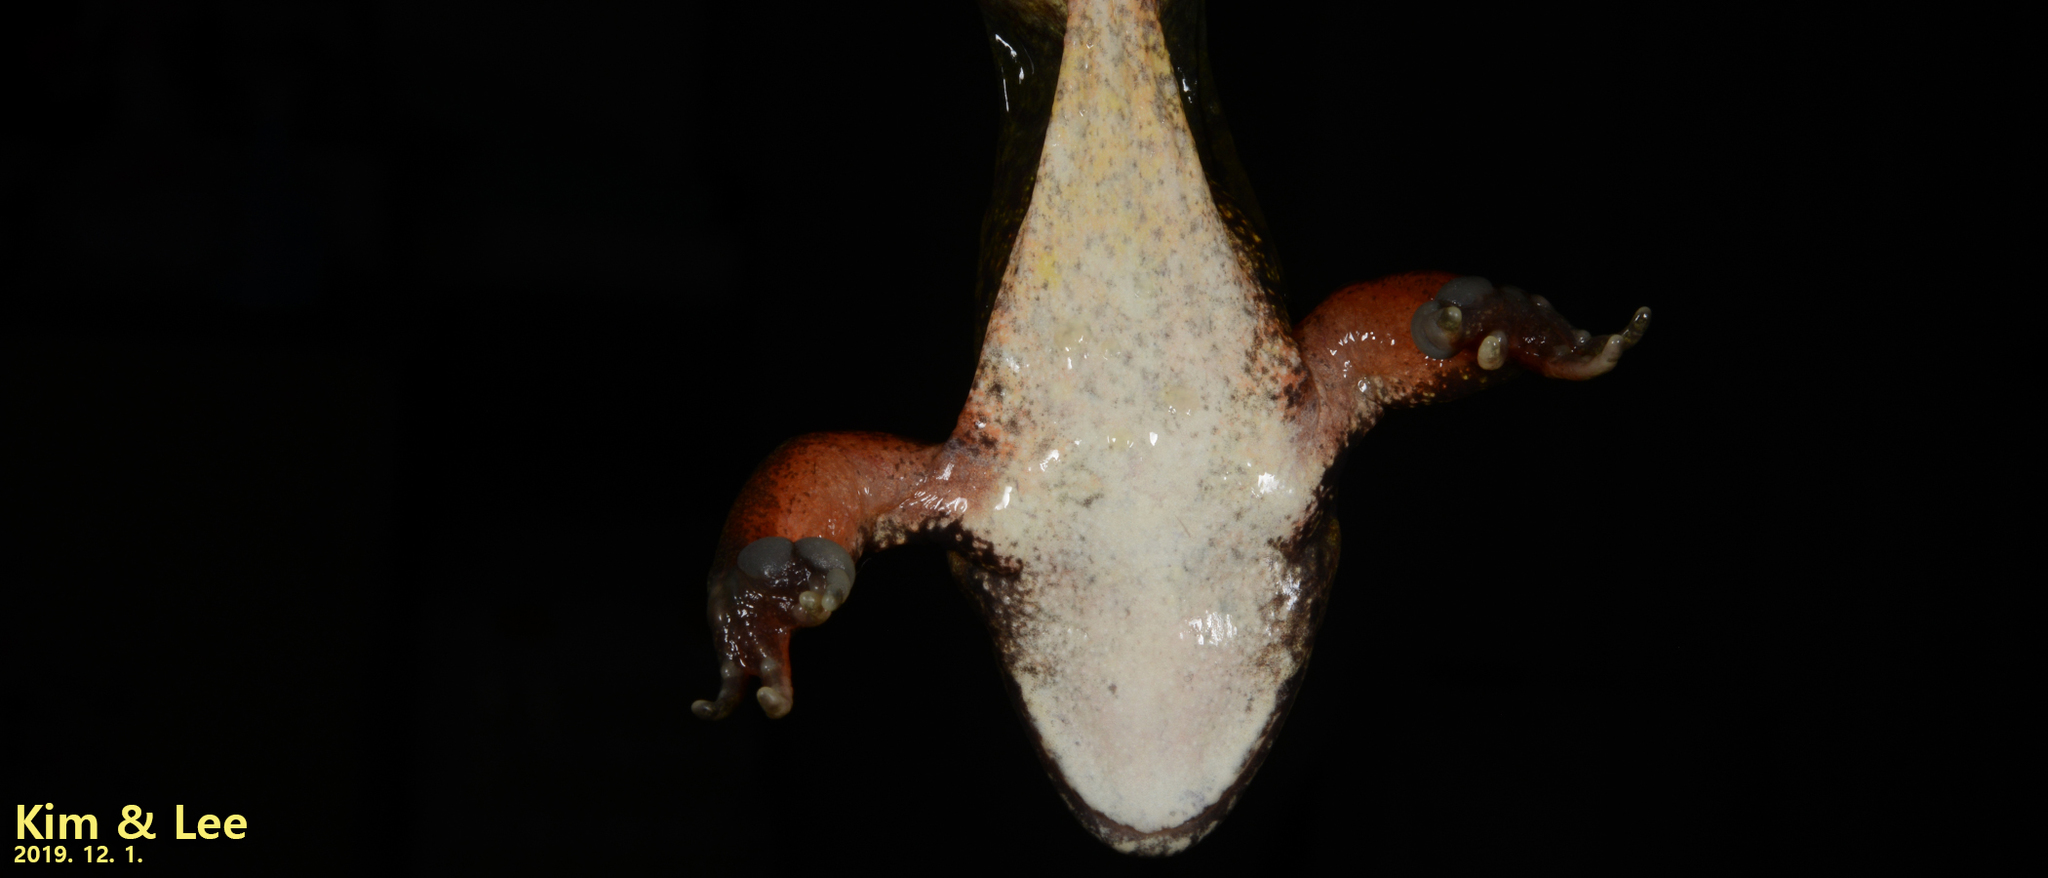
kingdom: Animalia
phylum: Chordata
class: Amphibia
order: Anura
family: Ranidae
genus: Rana
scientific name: Rana dybowskii
